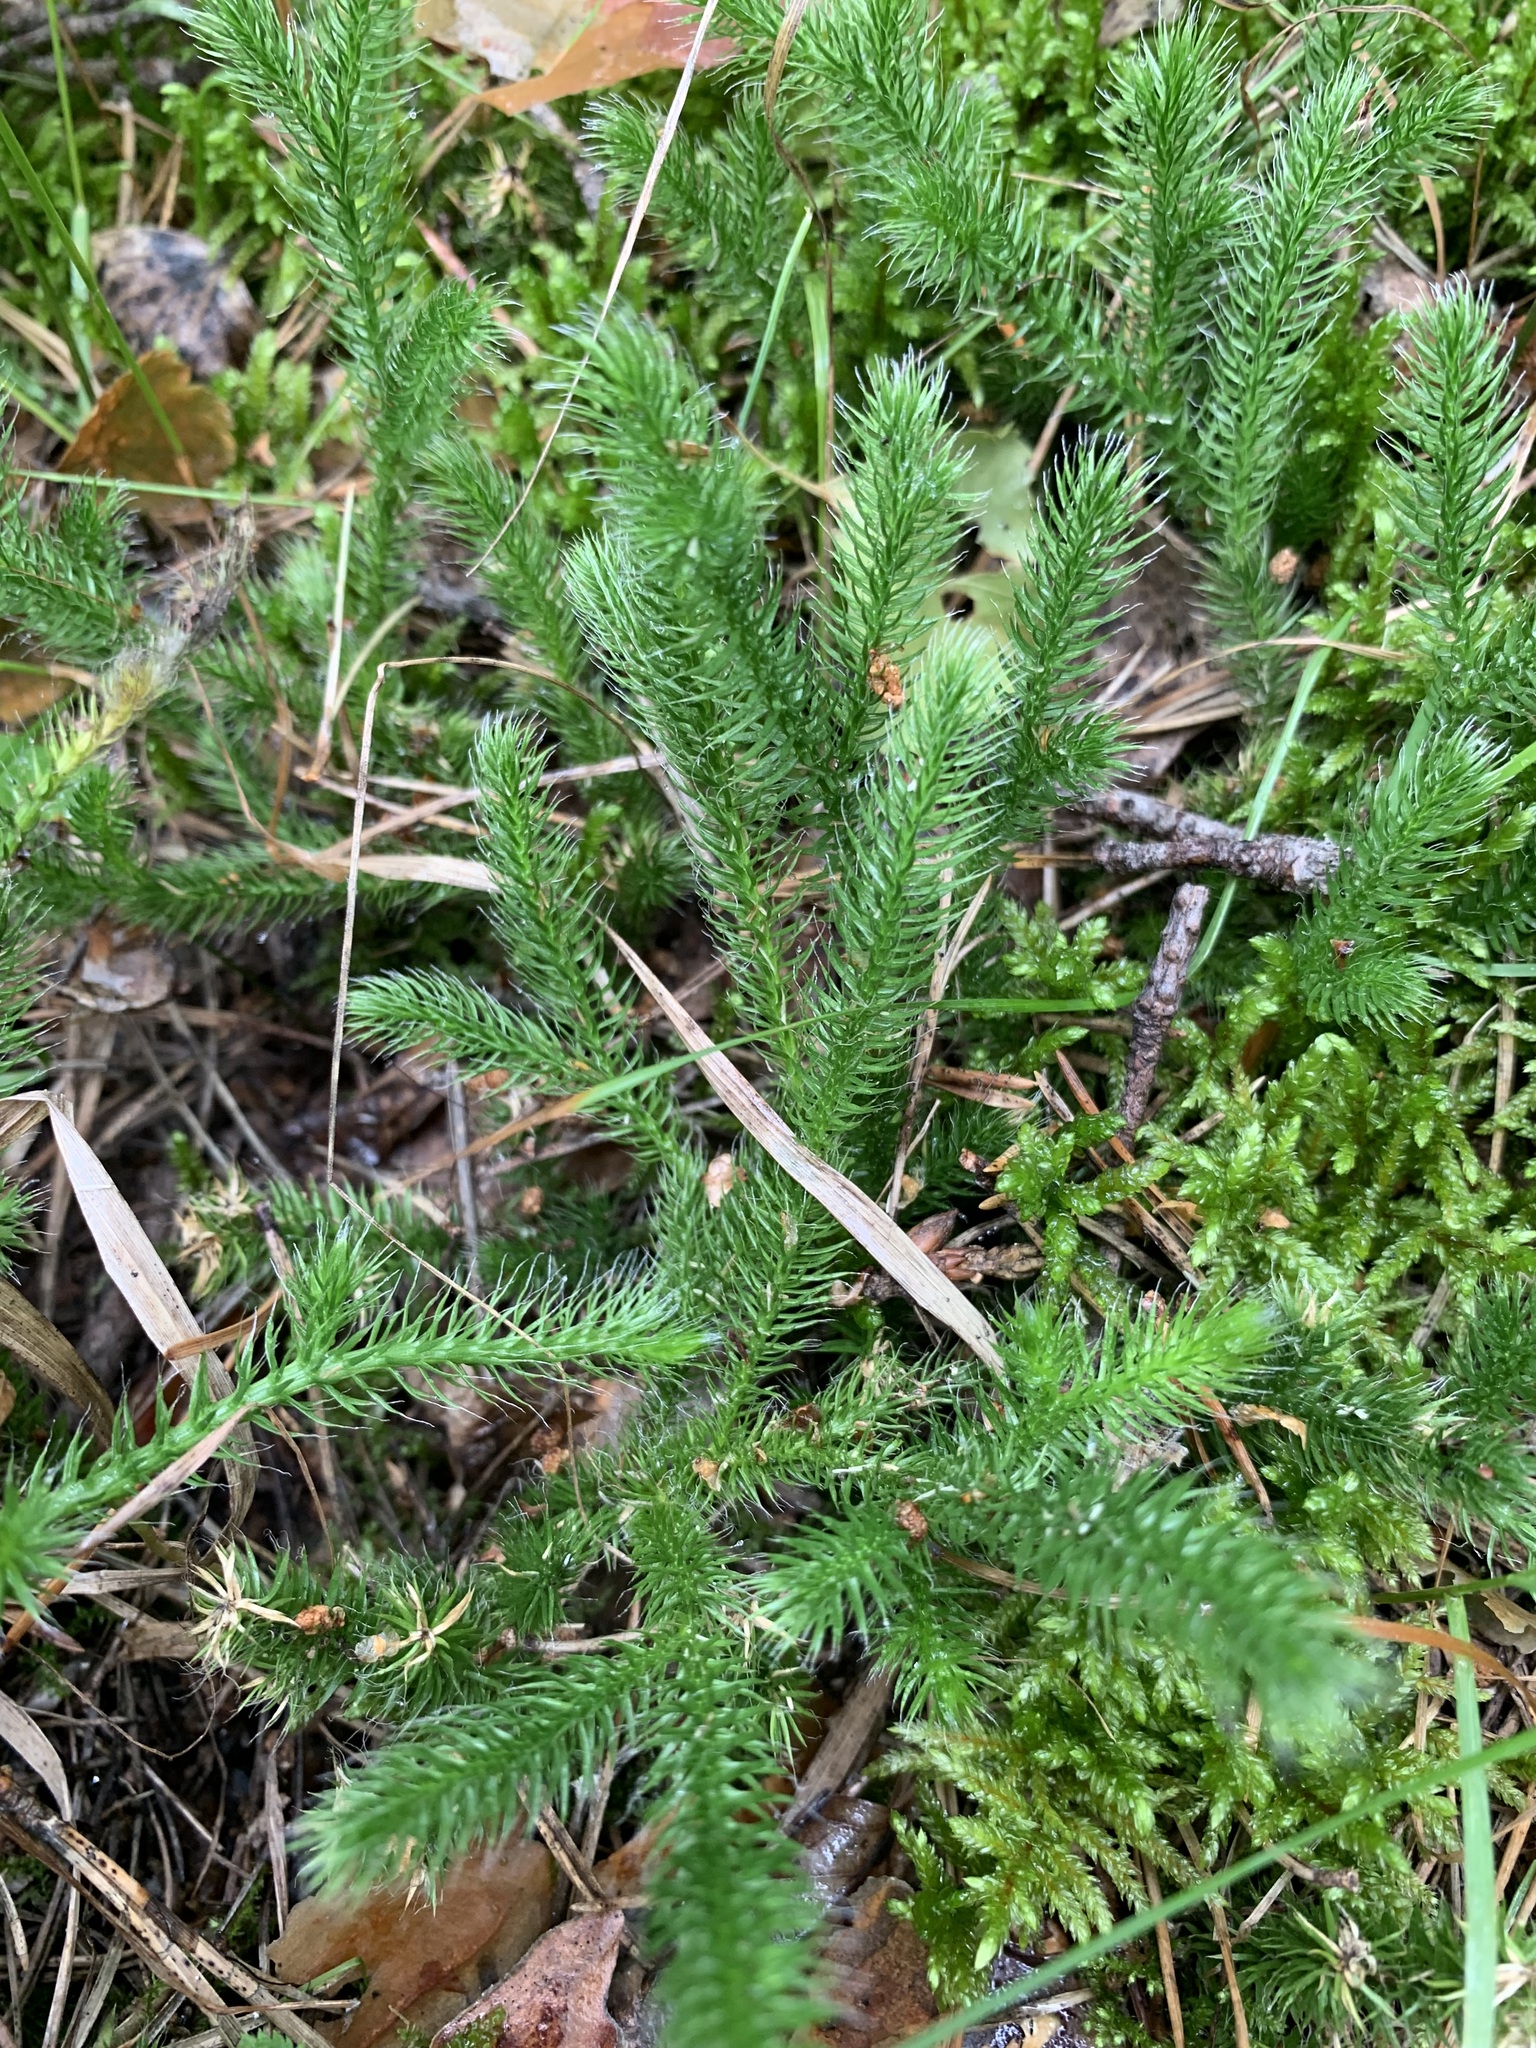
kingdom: Plantae
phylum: Tracheophyta
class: Lycopodiopsida
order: Lycopodiales
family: Lycopodiaceae
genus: Lycopodium
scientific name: Lycopodium clavatum
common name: Stag's-horn clubmoss
